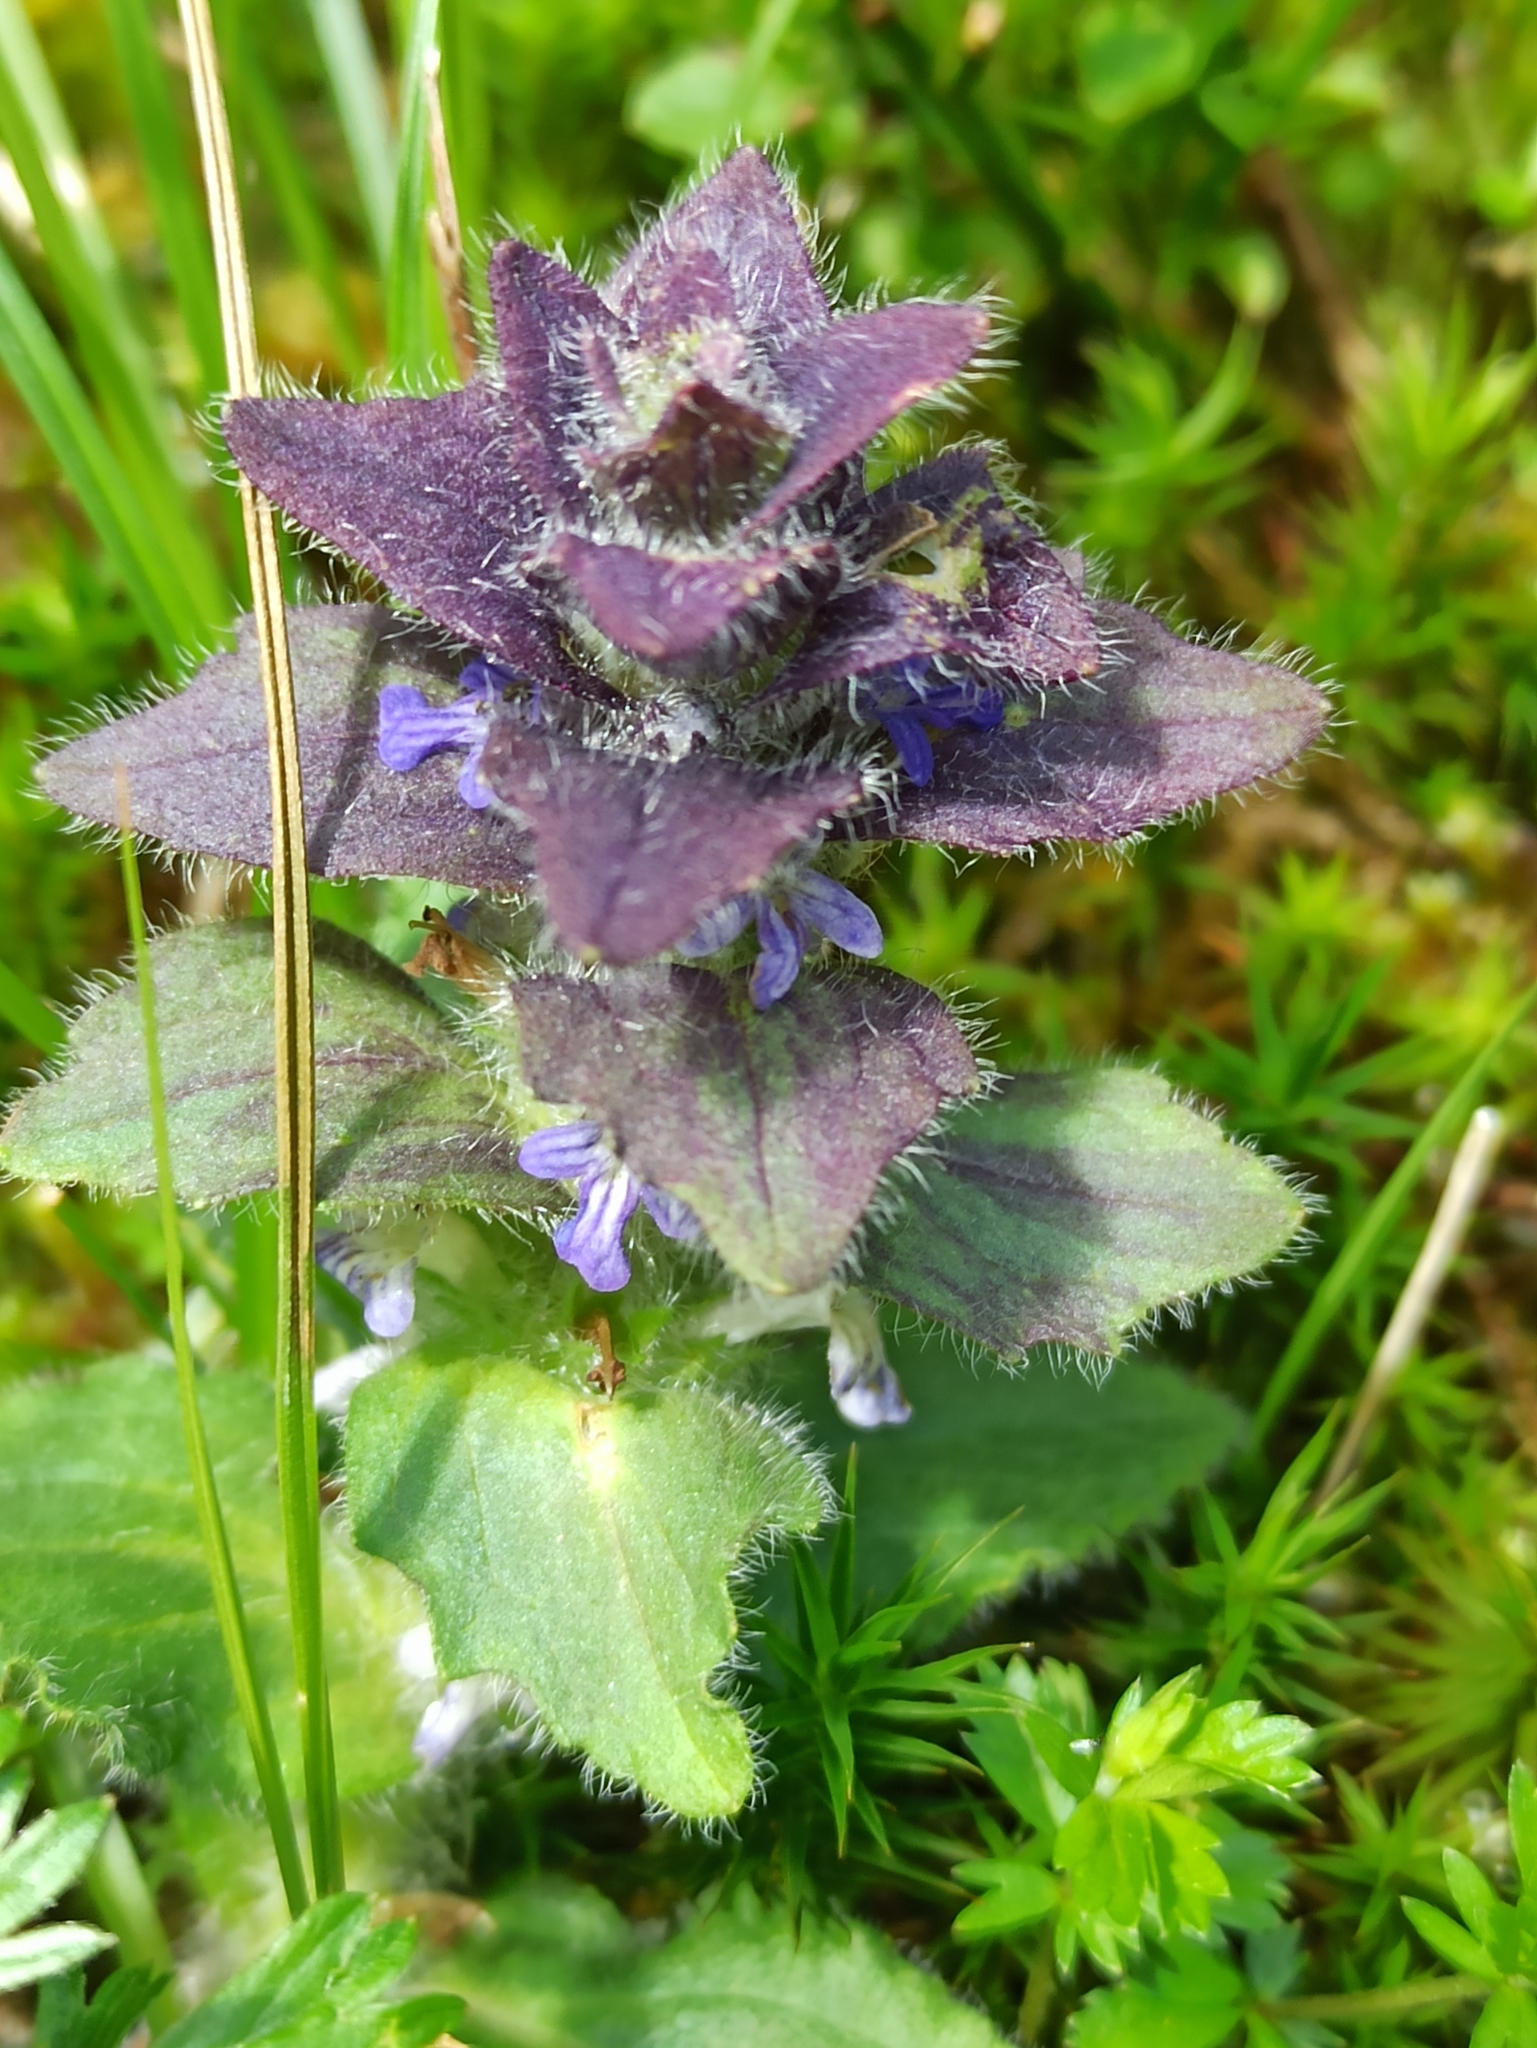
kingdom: Plantae
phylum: Tracheophyta
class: Magnoliopsida
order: Lamiales
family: Lamiaceae
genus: Ajuga
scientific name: Ajuga pyramidalis
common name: Pyramid bugle
